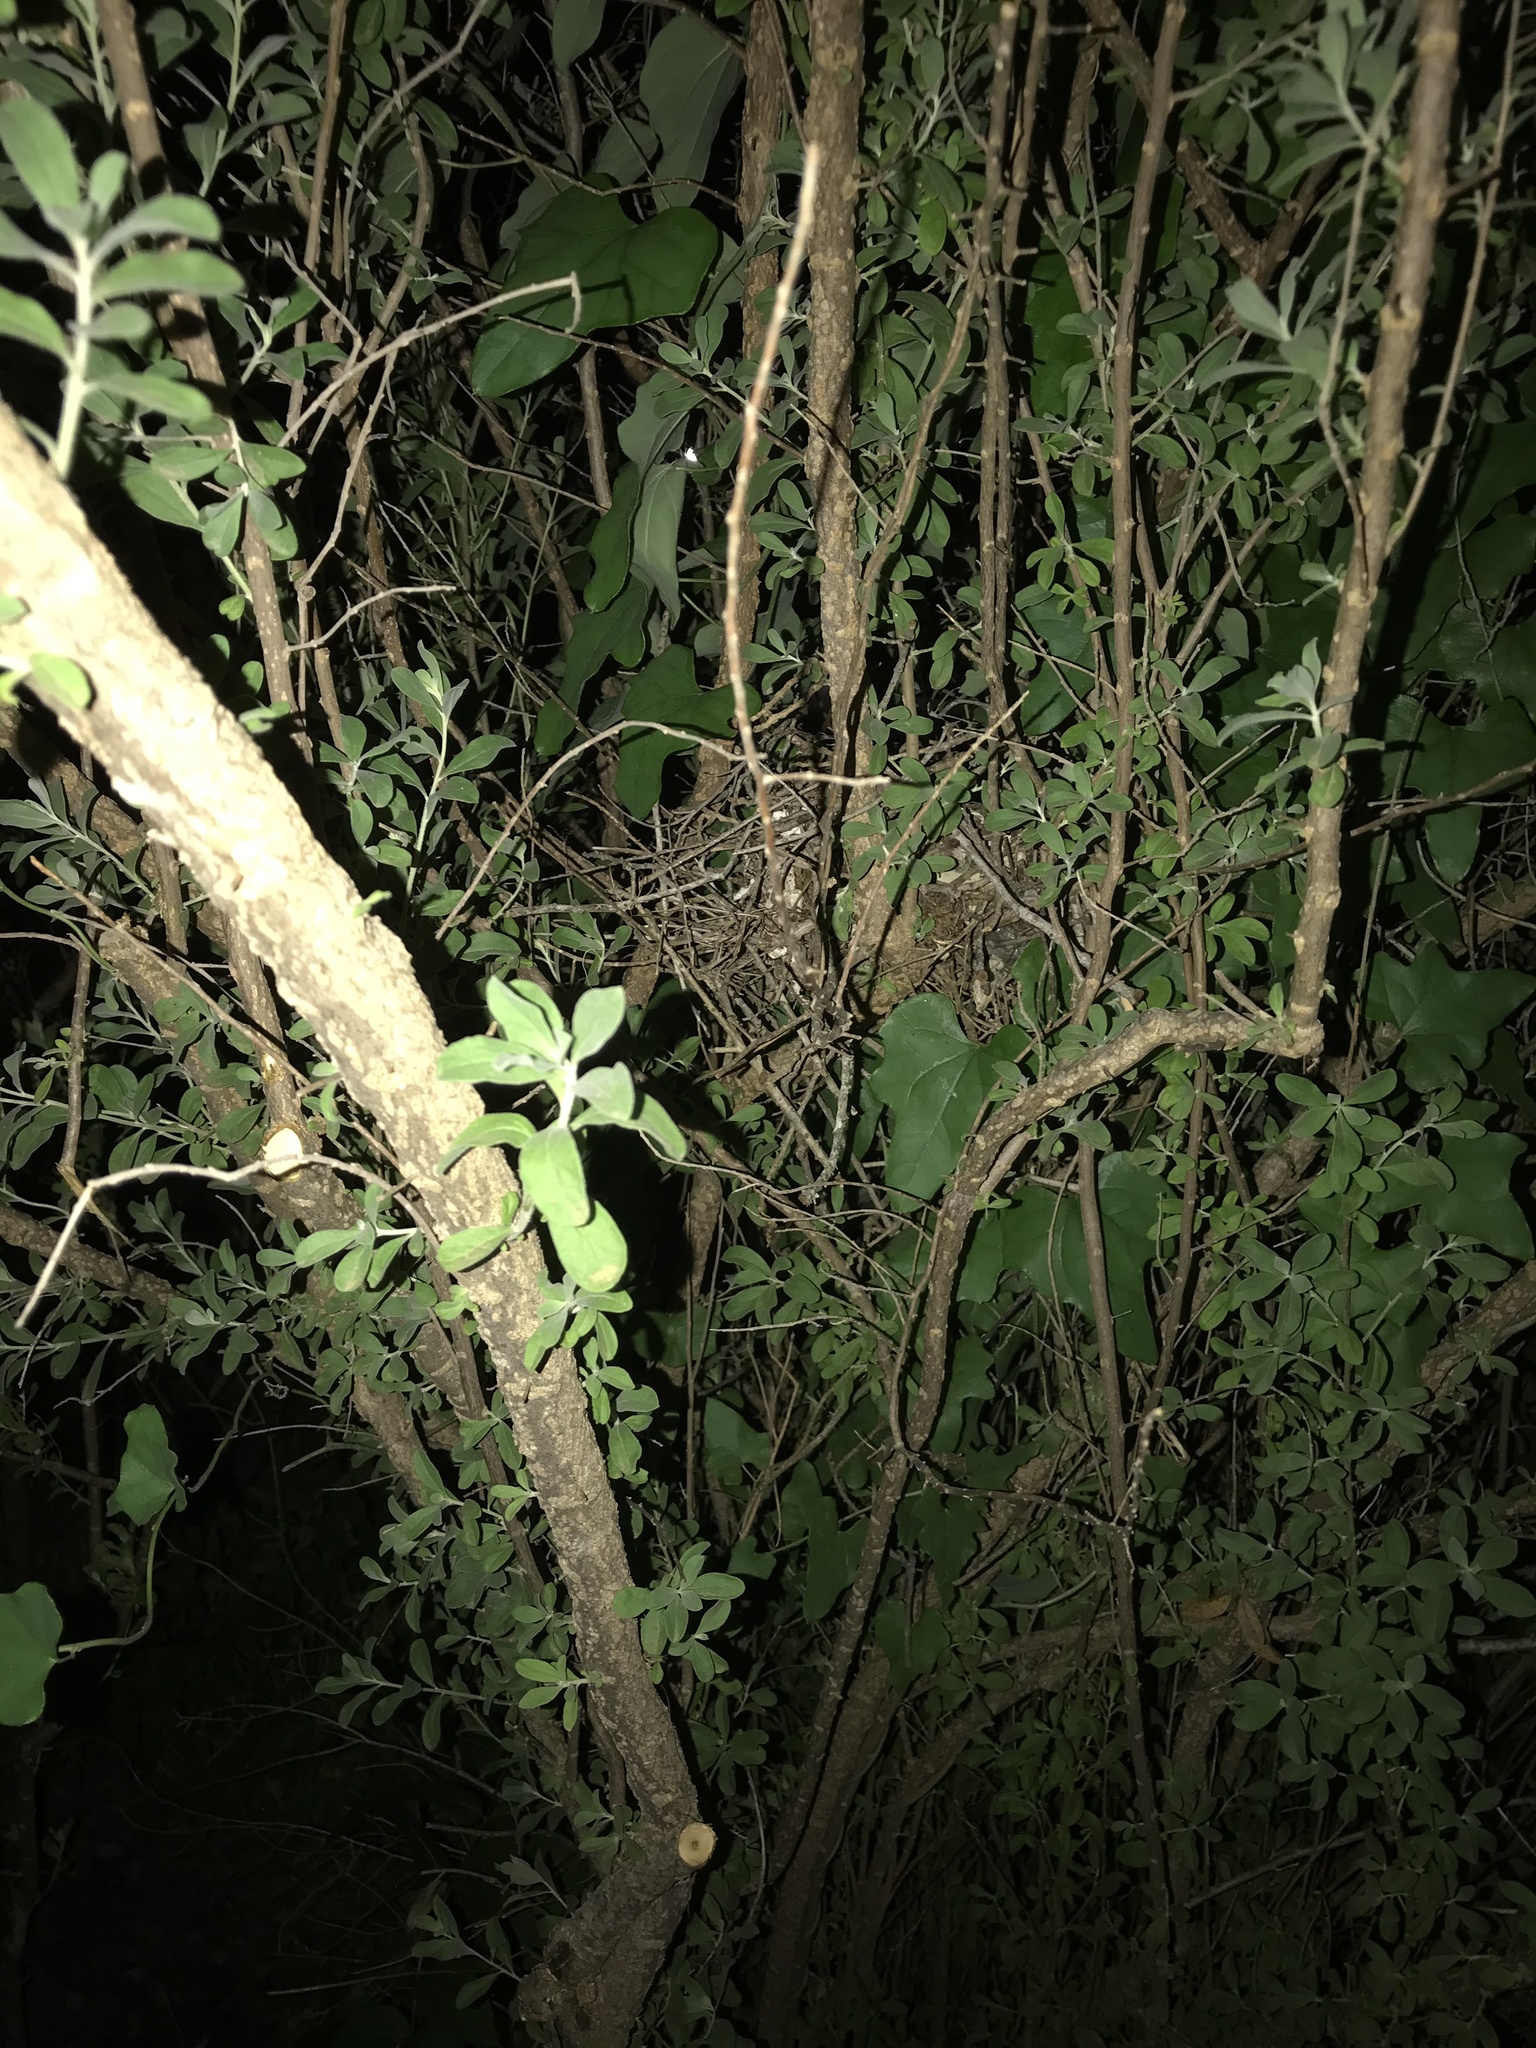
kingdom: Animalia
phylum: Chordata
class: Aves
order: Passeriformes
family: Mimidae
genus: Mimus
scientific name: Mimus polyglottos
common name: Northern mockingbird
